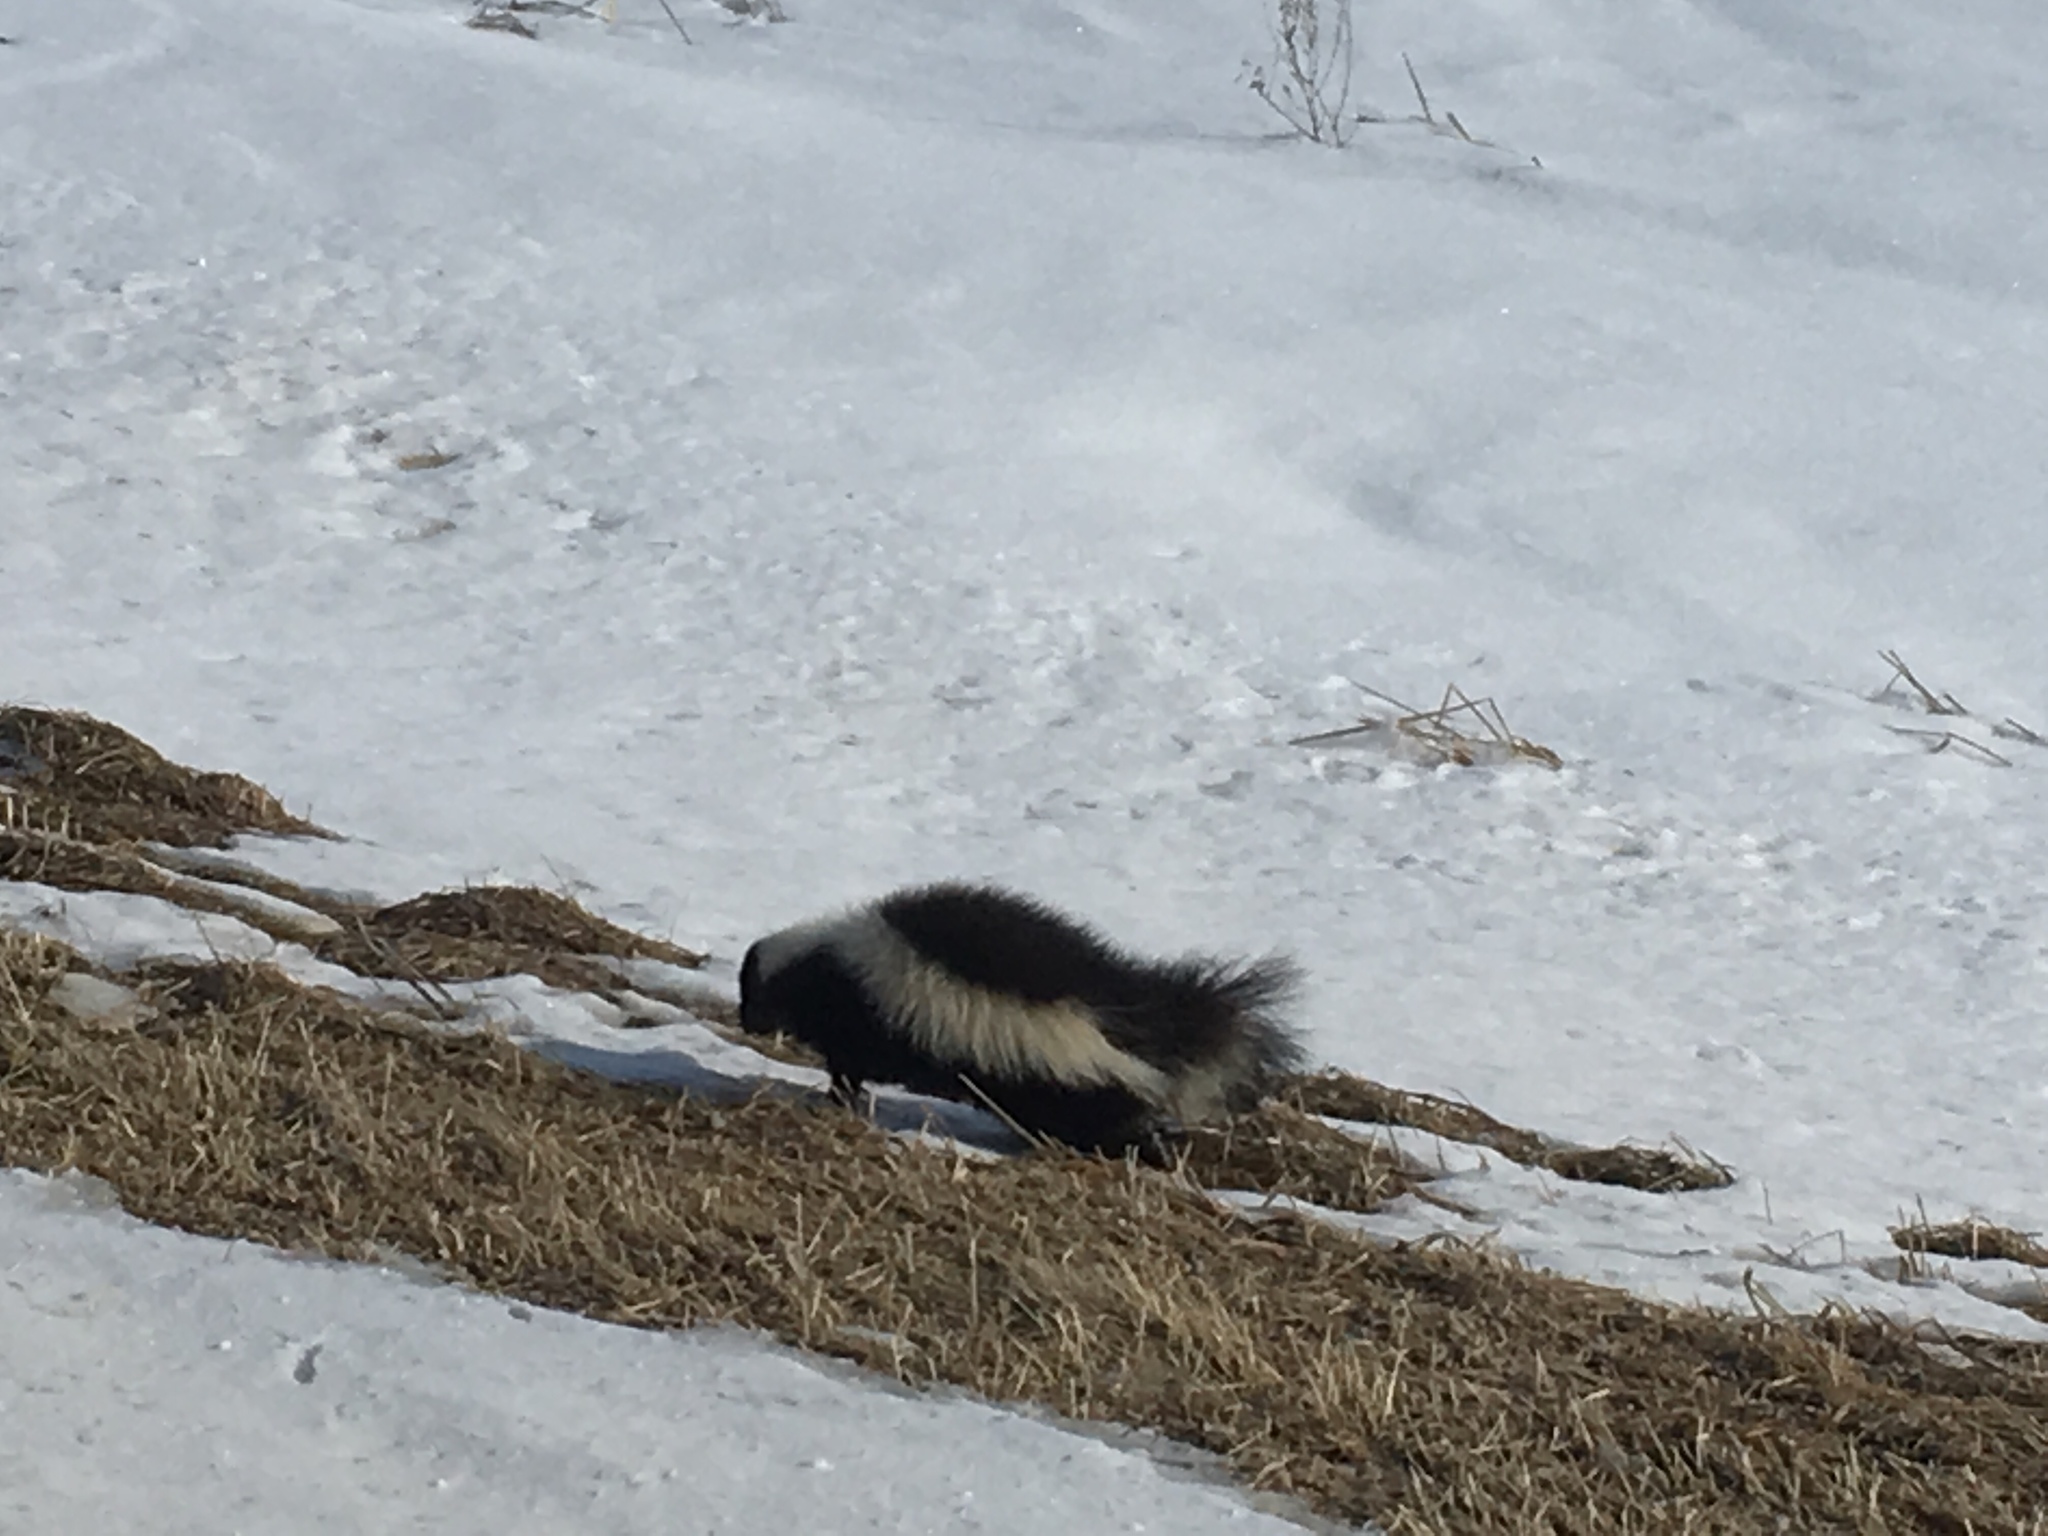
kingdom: Animalia
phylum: Chordata
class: Mammalia
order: Carnivora
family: Mephitidae
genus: Mephitis
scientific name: Mephitis mephitis
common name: Striped skunk
